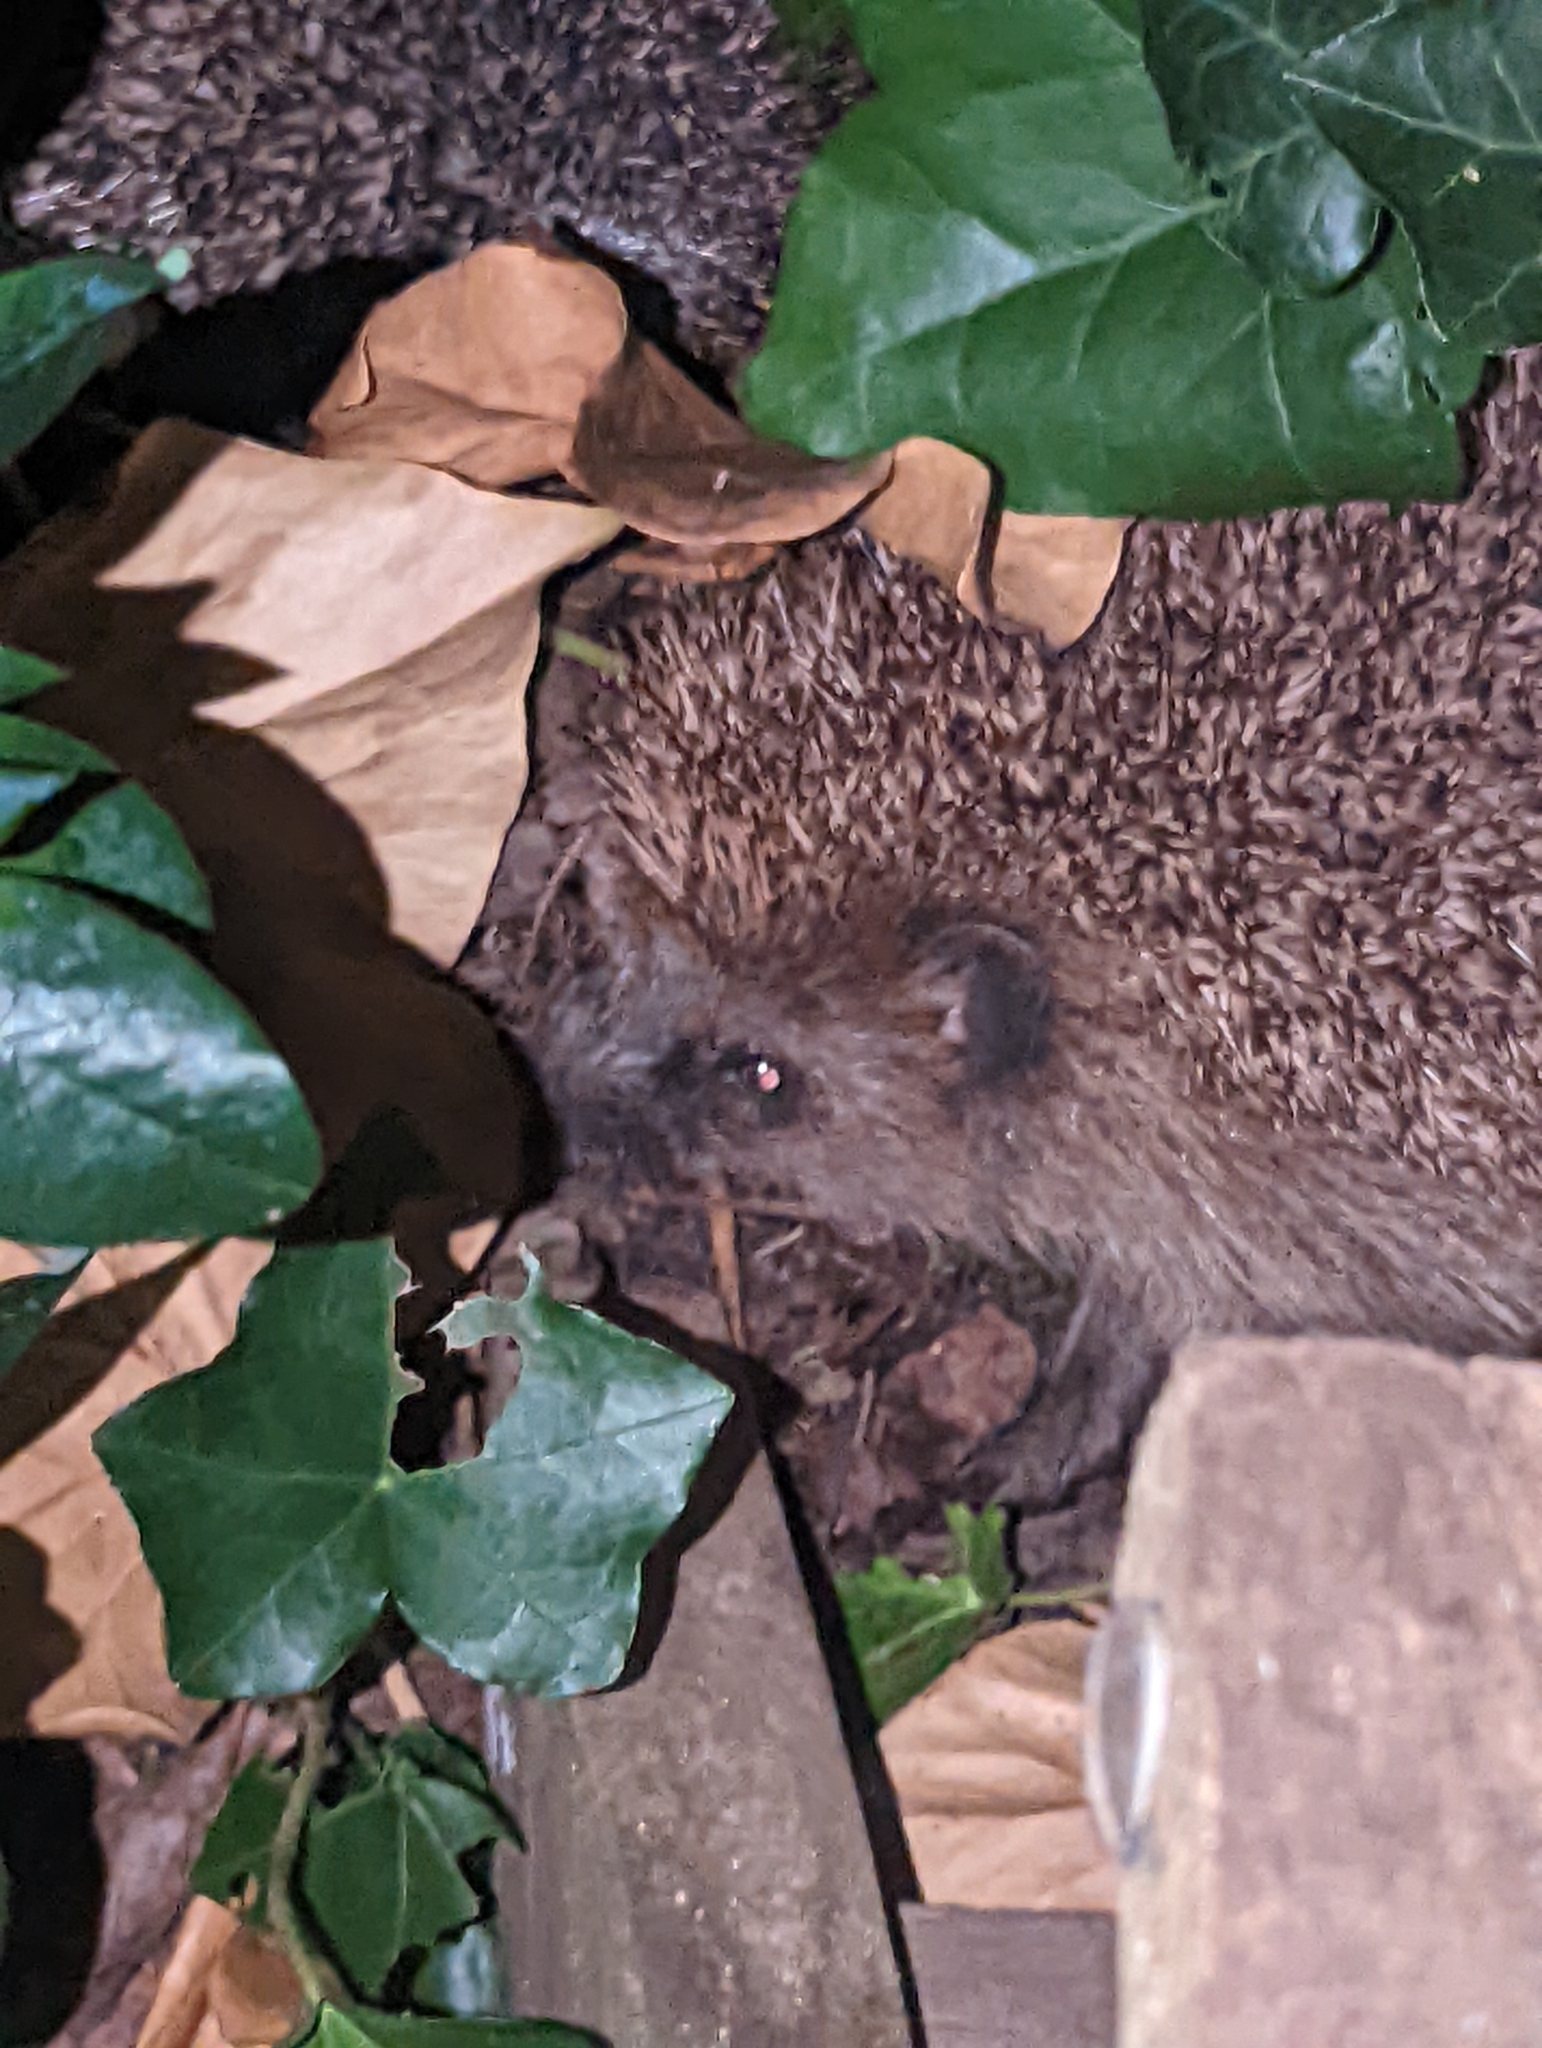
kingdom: Animalia
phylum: Chordata
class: Mammalia
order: Erinaceomorpha
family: Erinaceidae
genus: Erinaceus
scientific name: Erinaceus europaeus
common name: West european hedgehog
